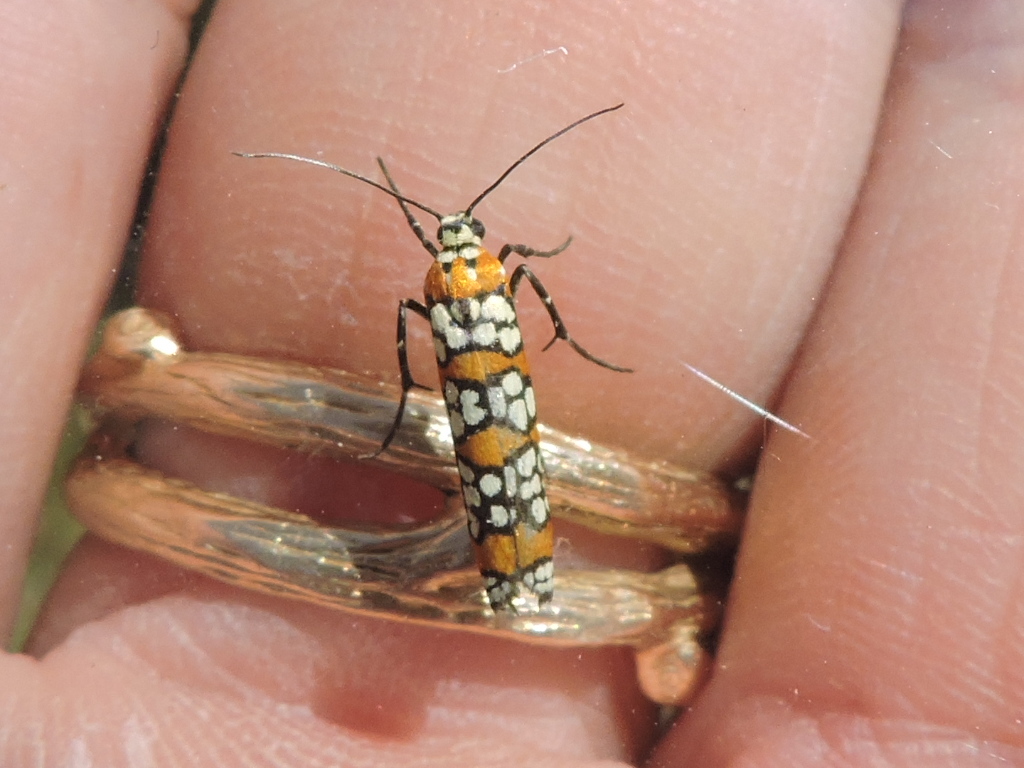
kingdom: Animalia
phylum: Arthropoda
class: Insecta
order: Lepidoptera
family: Attevidae
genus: Atteva
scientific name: Atteva punctella
